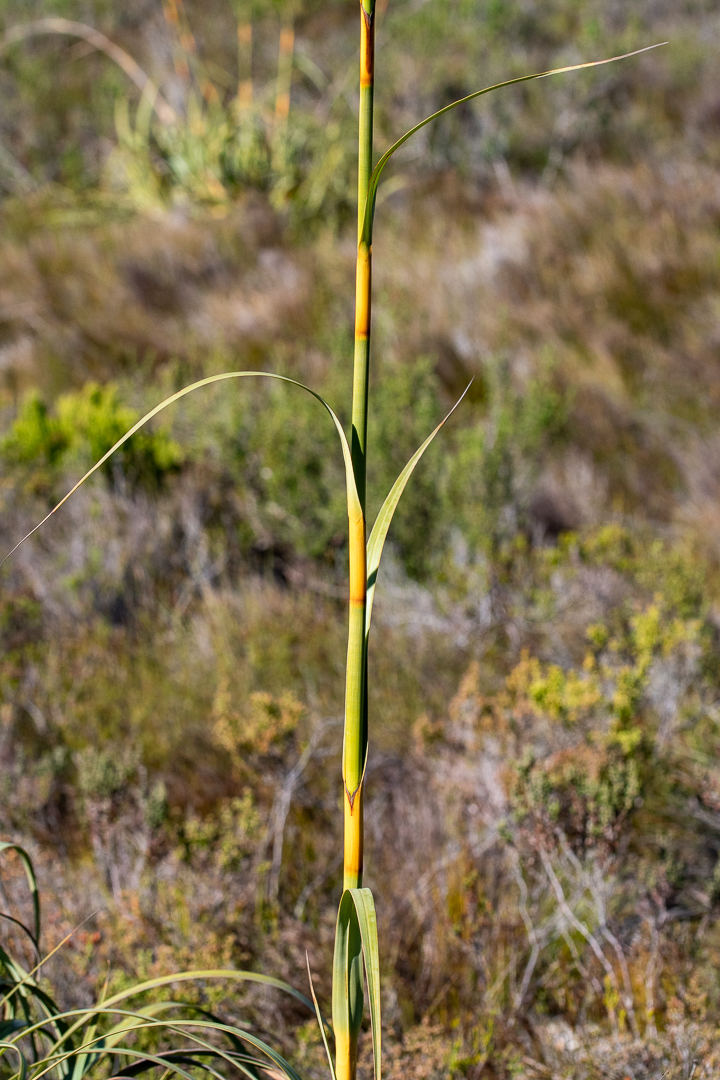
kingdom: Plantae
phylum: Tracheophyta
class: Liliopsida
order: Poales
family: Cyperaceae
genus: Tetraria
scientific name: Tetraria thermalis
